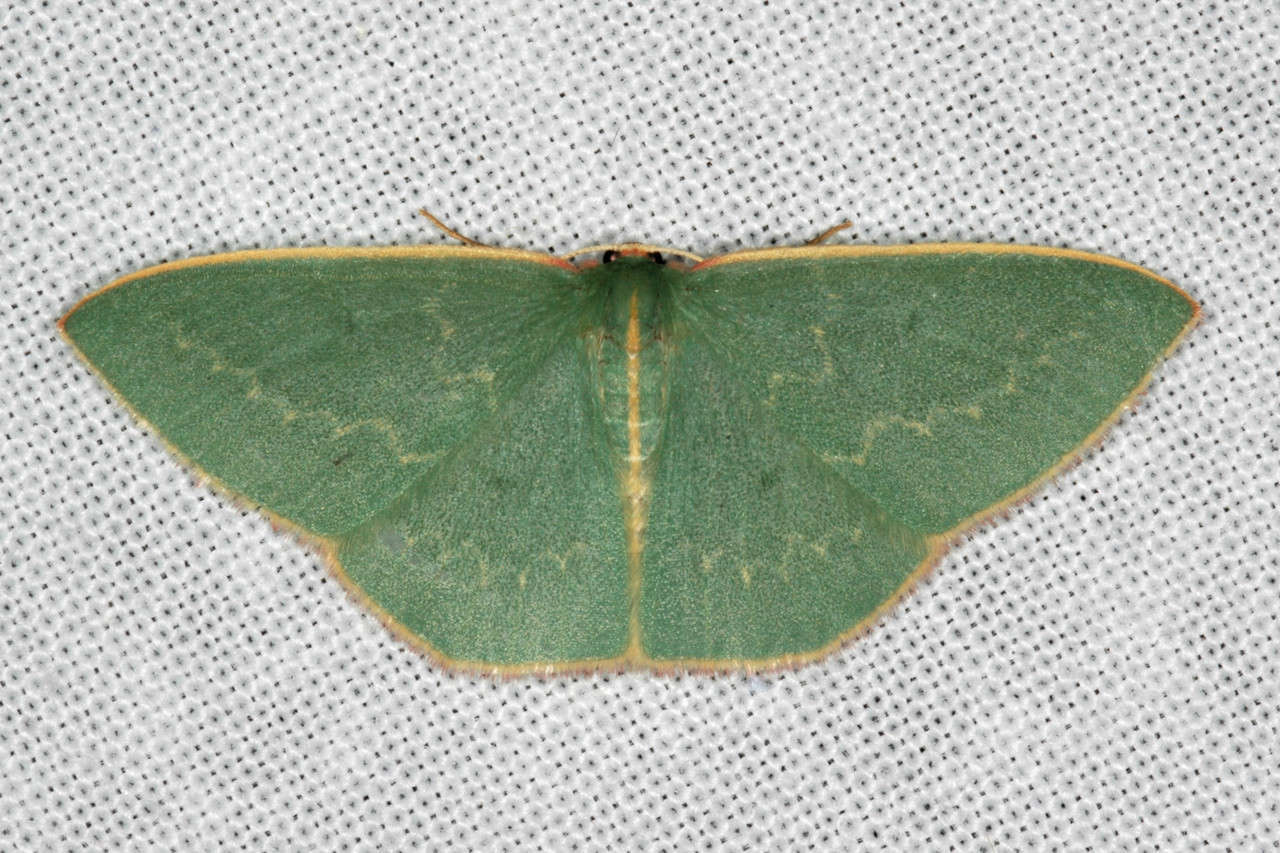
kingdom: Animalia
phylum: Arthropoda
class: Insecta
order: Lepidoptera
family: Geometridae
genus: Chlorocoma
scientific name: Chlorocoma dichloraria
